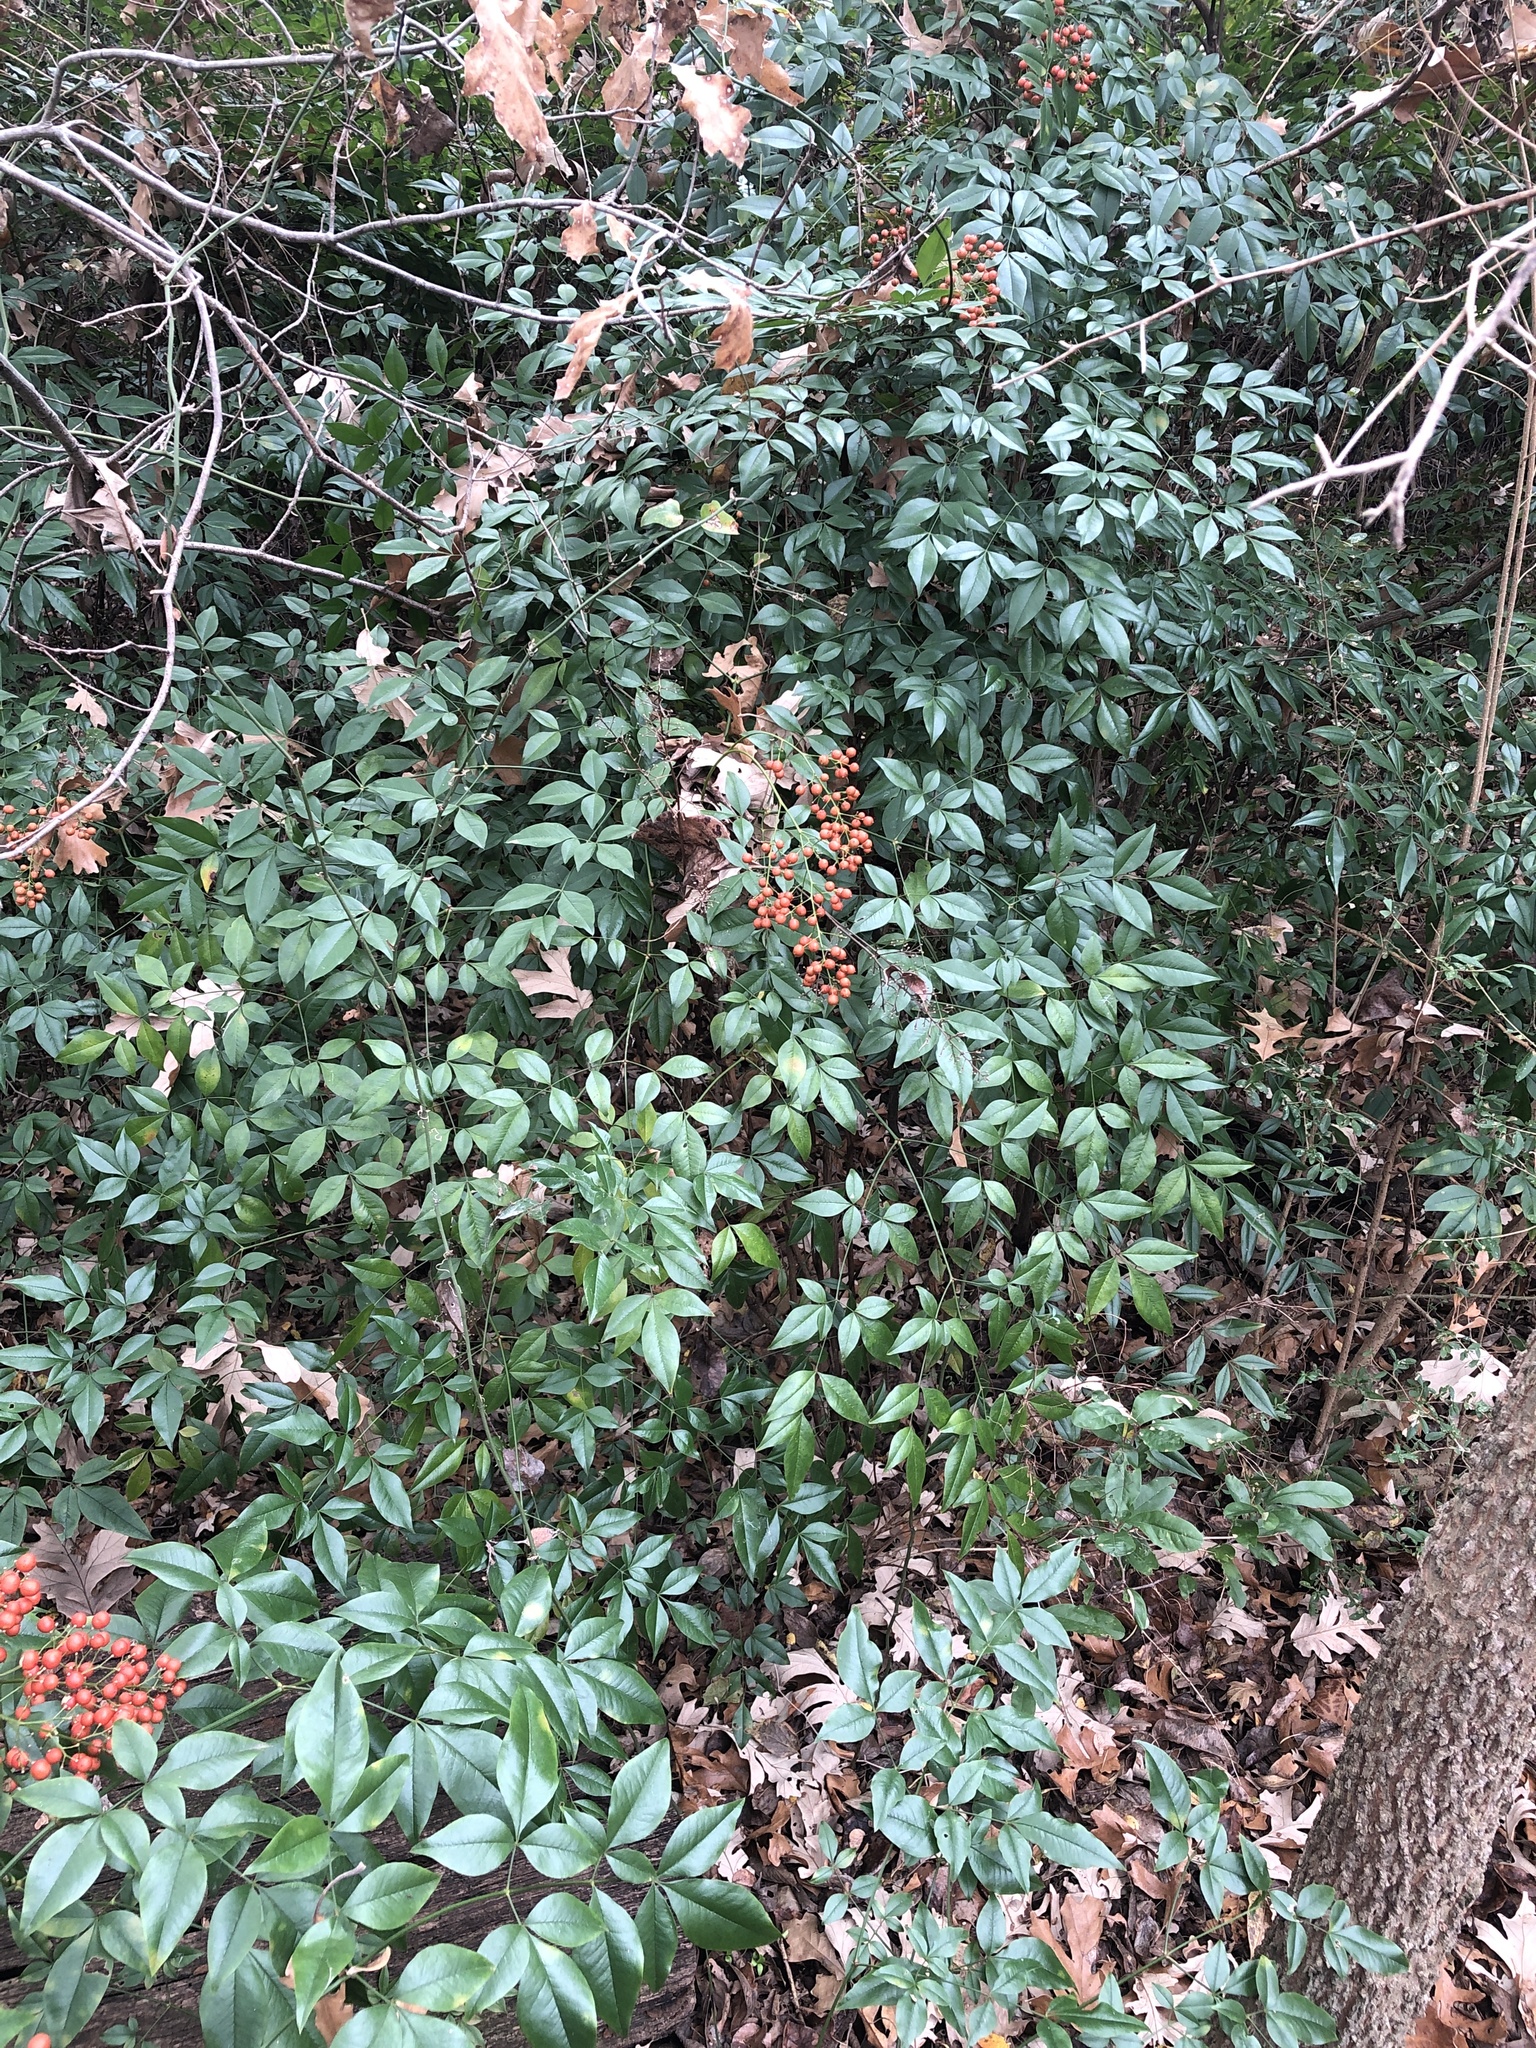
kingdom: Plantae
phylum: Tracheophyta
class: Magnoliopsida
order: Ranunculales
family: Berberidaceae
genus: Nandina
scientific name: Nandina domestica
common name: Sacred bamboo
